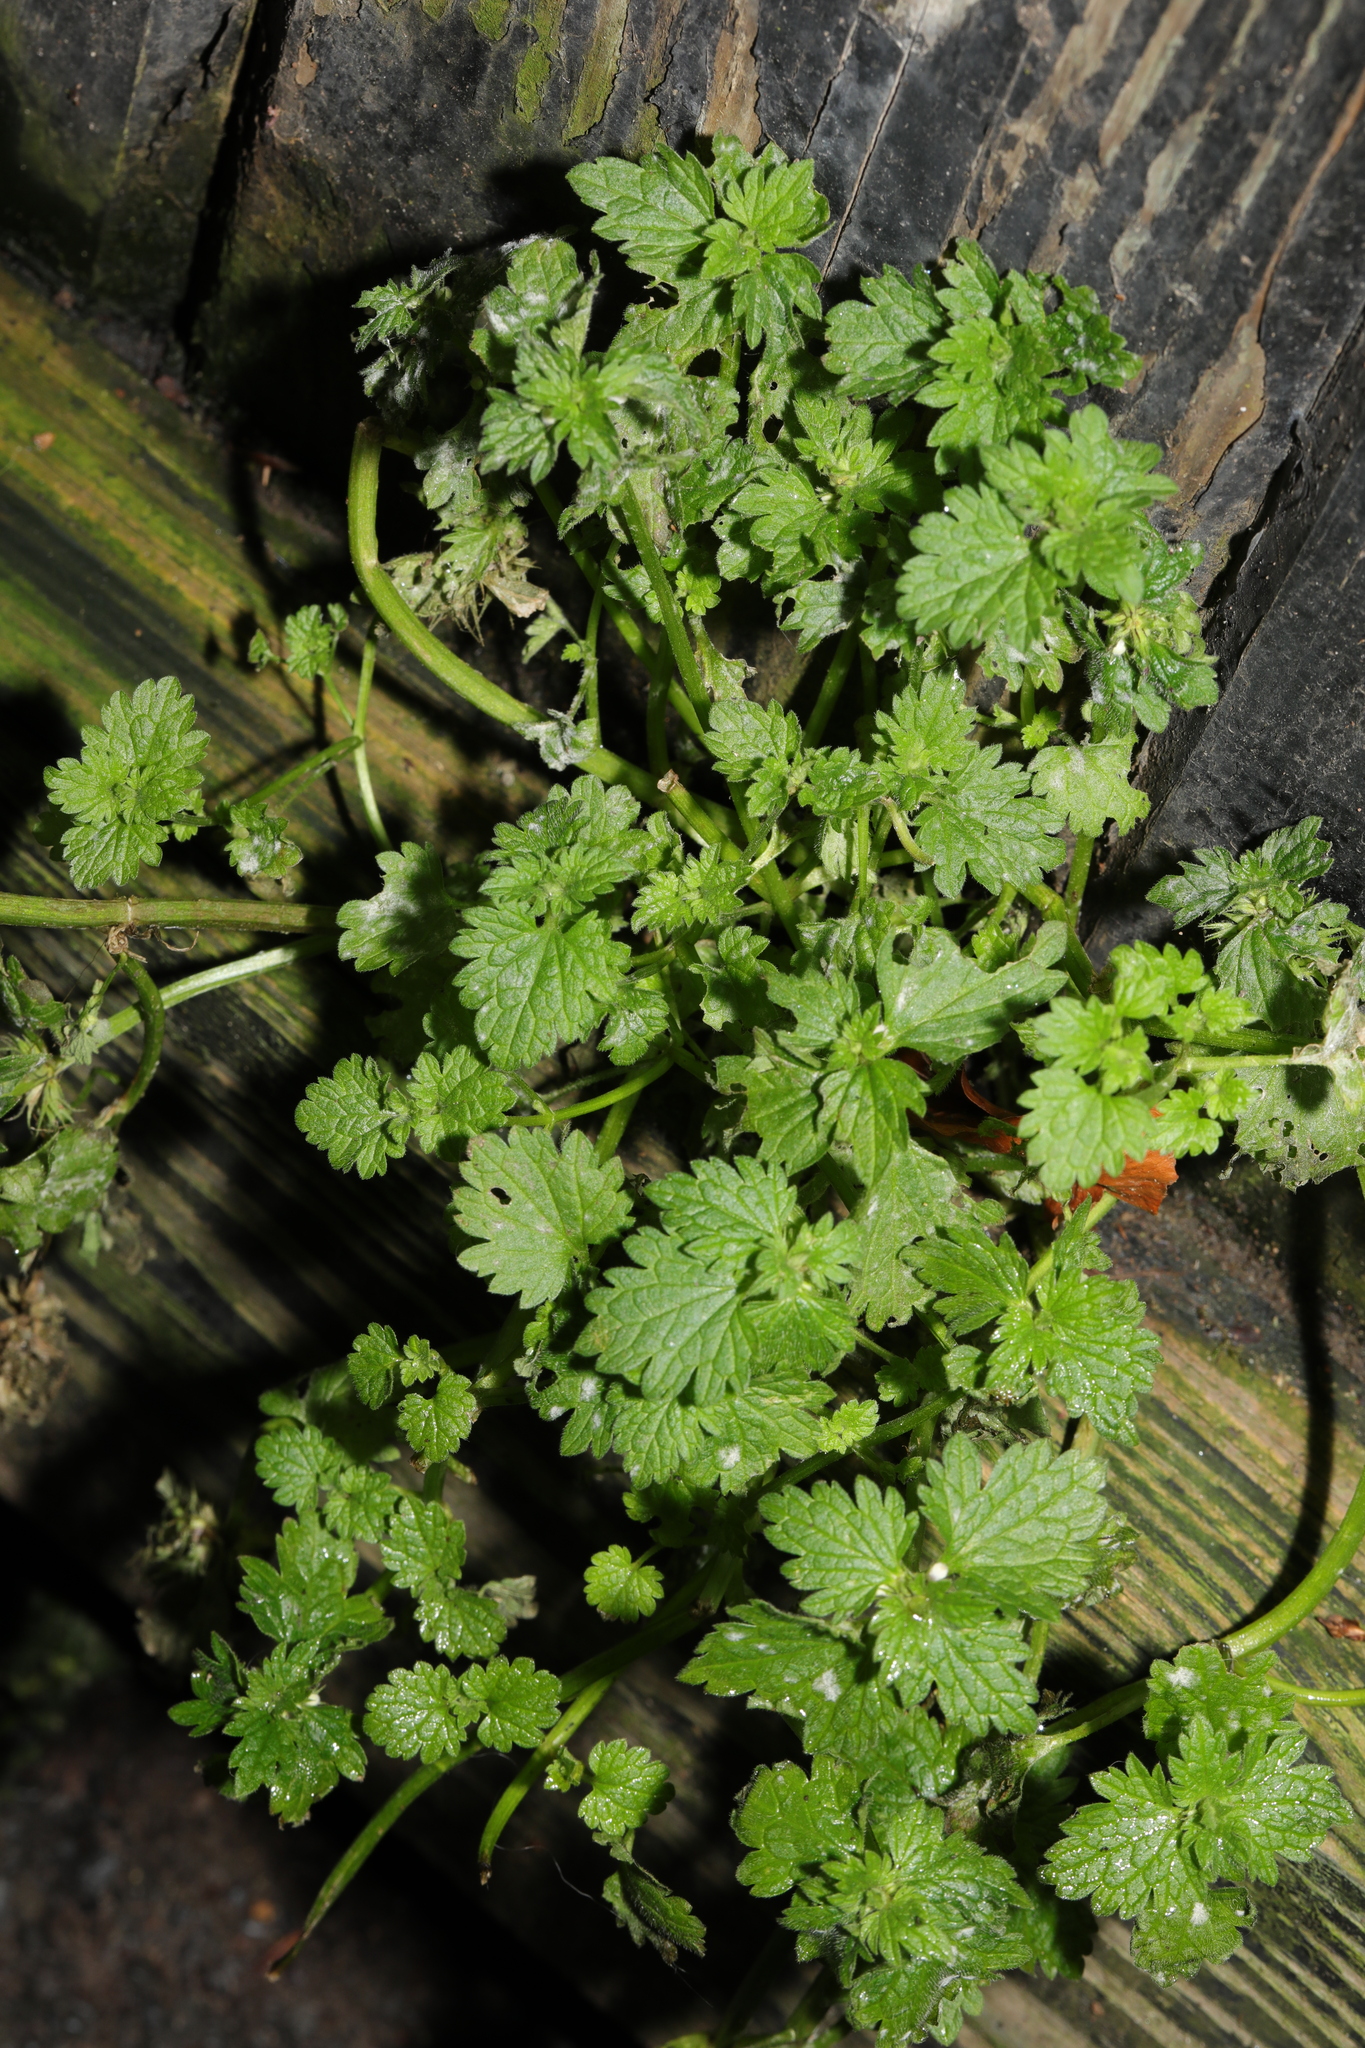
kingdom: Plantae
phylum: Tracheophyta
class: Magnoliopsida
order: Lamiales
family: Lamiaceae
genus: Lamium
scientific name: Lamium hybridum
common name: Cut-leaved dead-nettle
